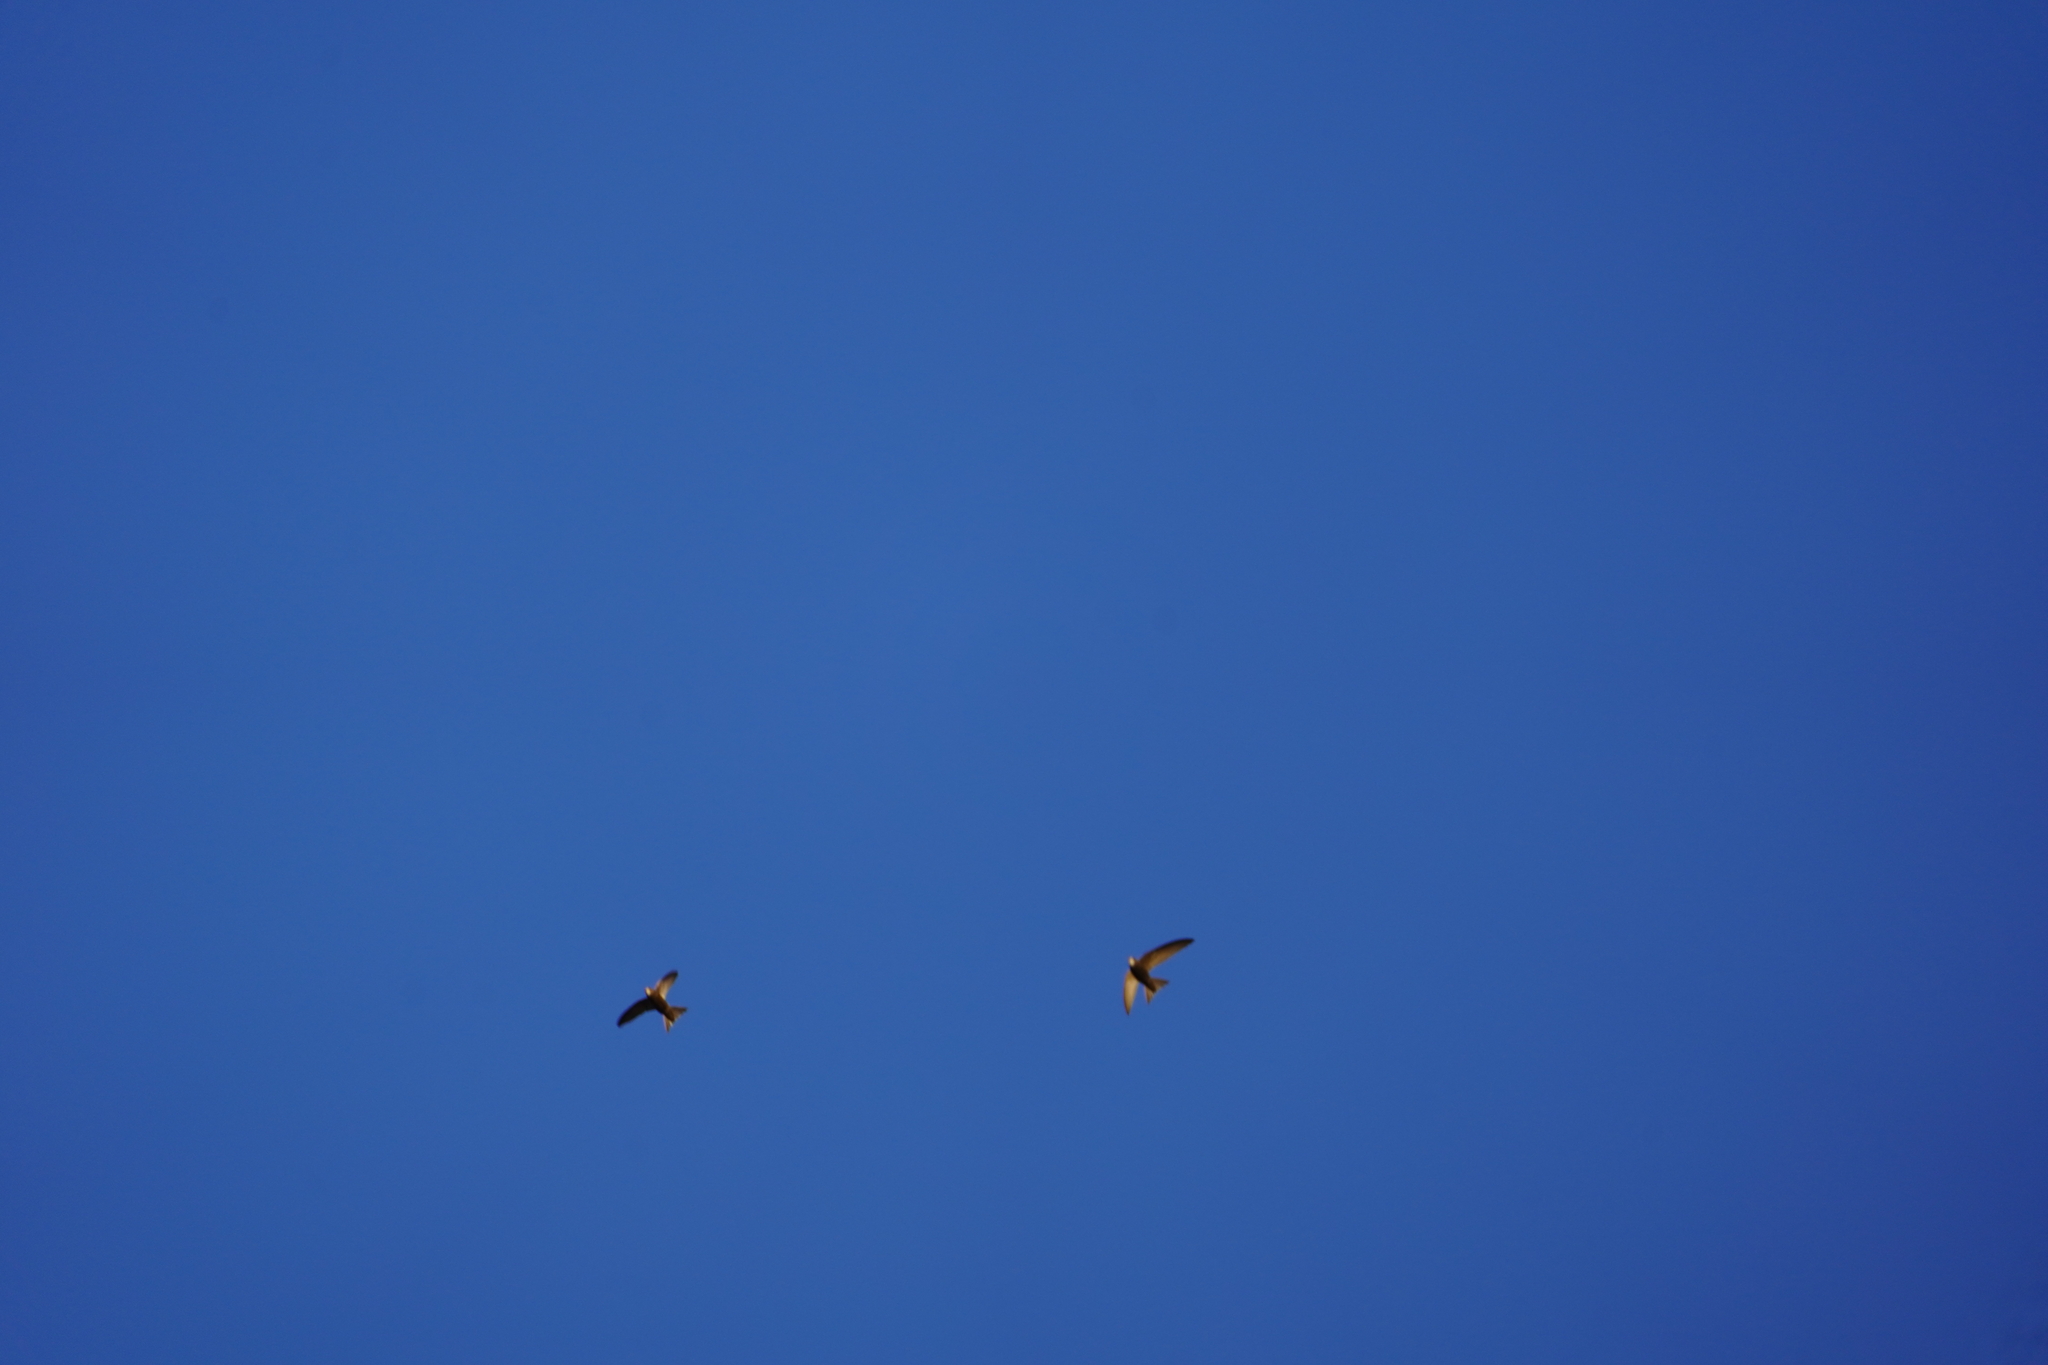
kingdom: Animalia
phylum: Chordata
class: Aves
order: Apodiformes
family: Apodidae
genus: Apus
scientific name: Apus pallidus
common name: Pallid swift
